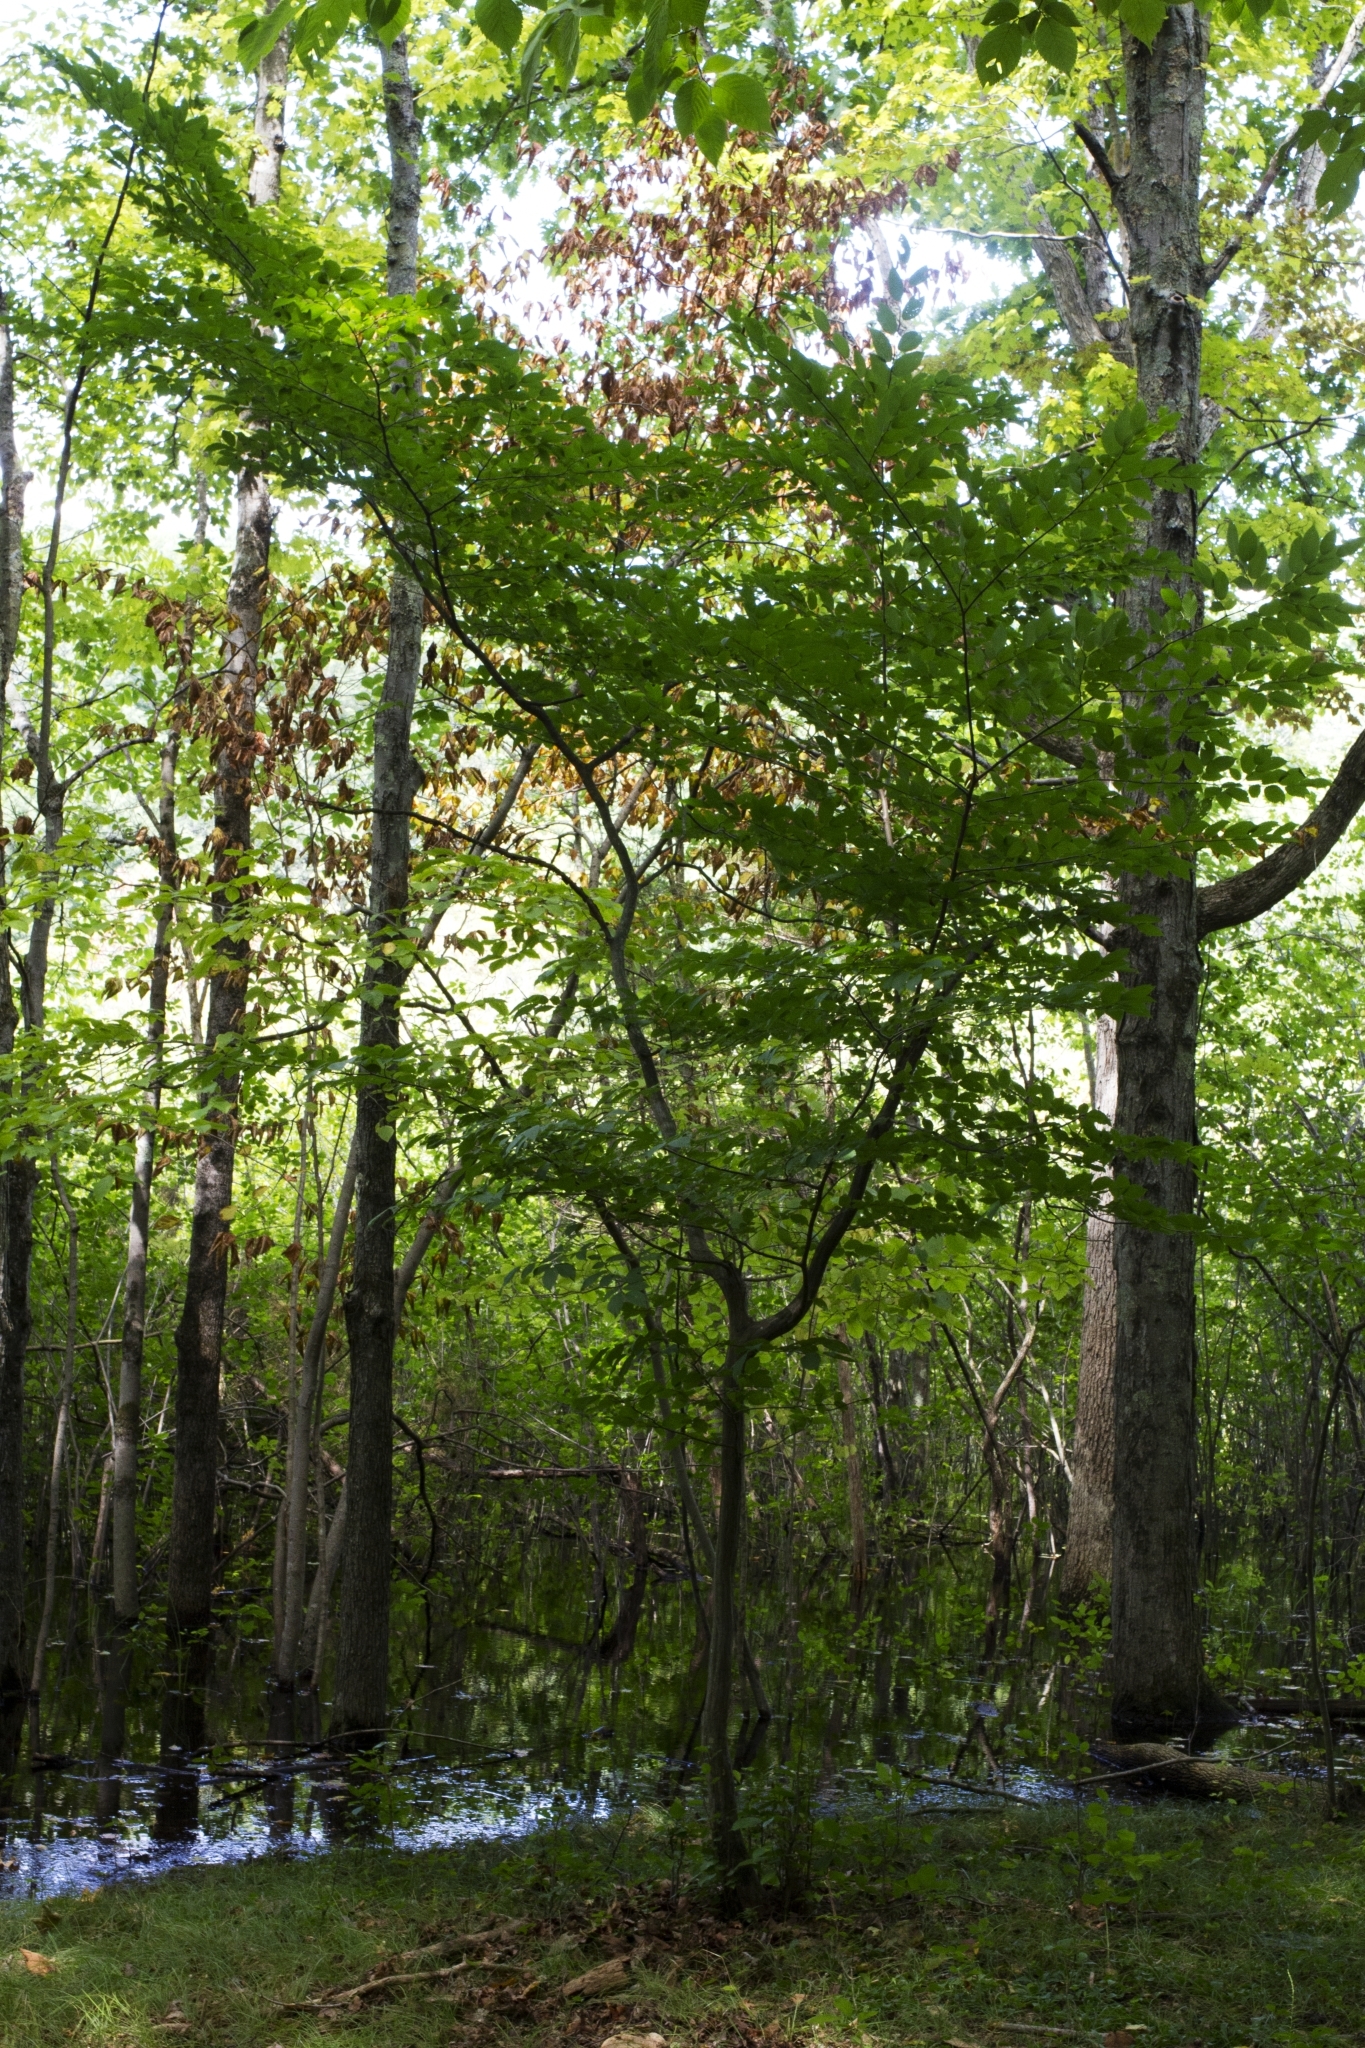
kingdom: Plantae
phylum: Tracheophyta
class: Magnoliopsida
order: Fagales
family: Betulaceae
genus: Carpinus
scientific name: Carpinus caroliniana
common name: American hornbeam
